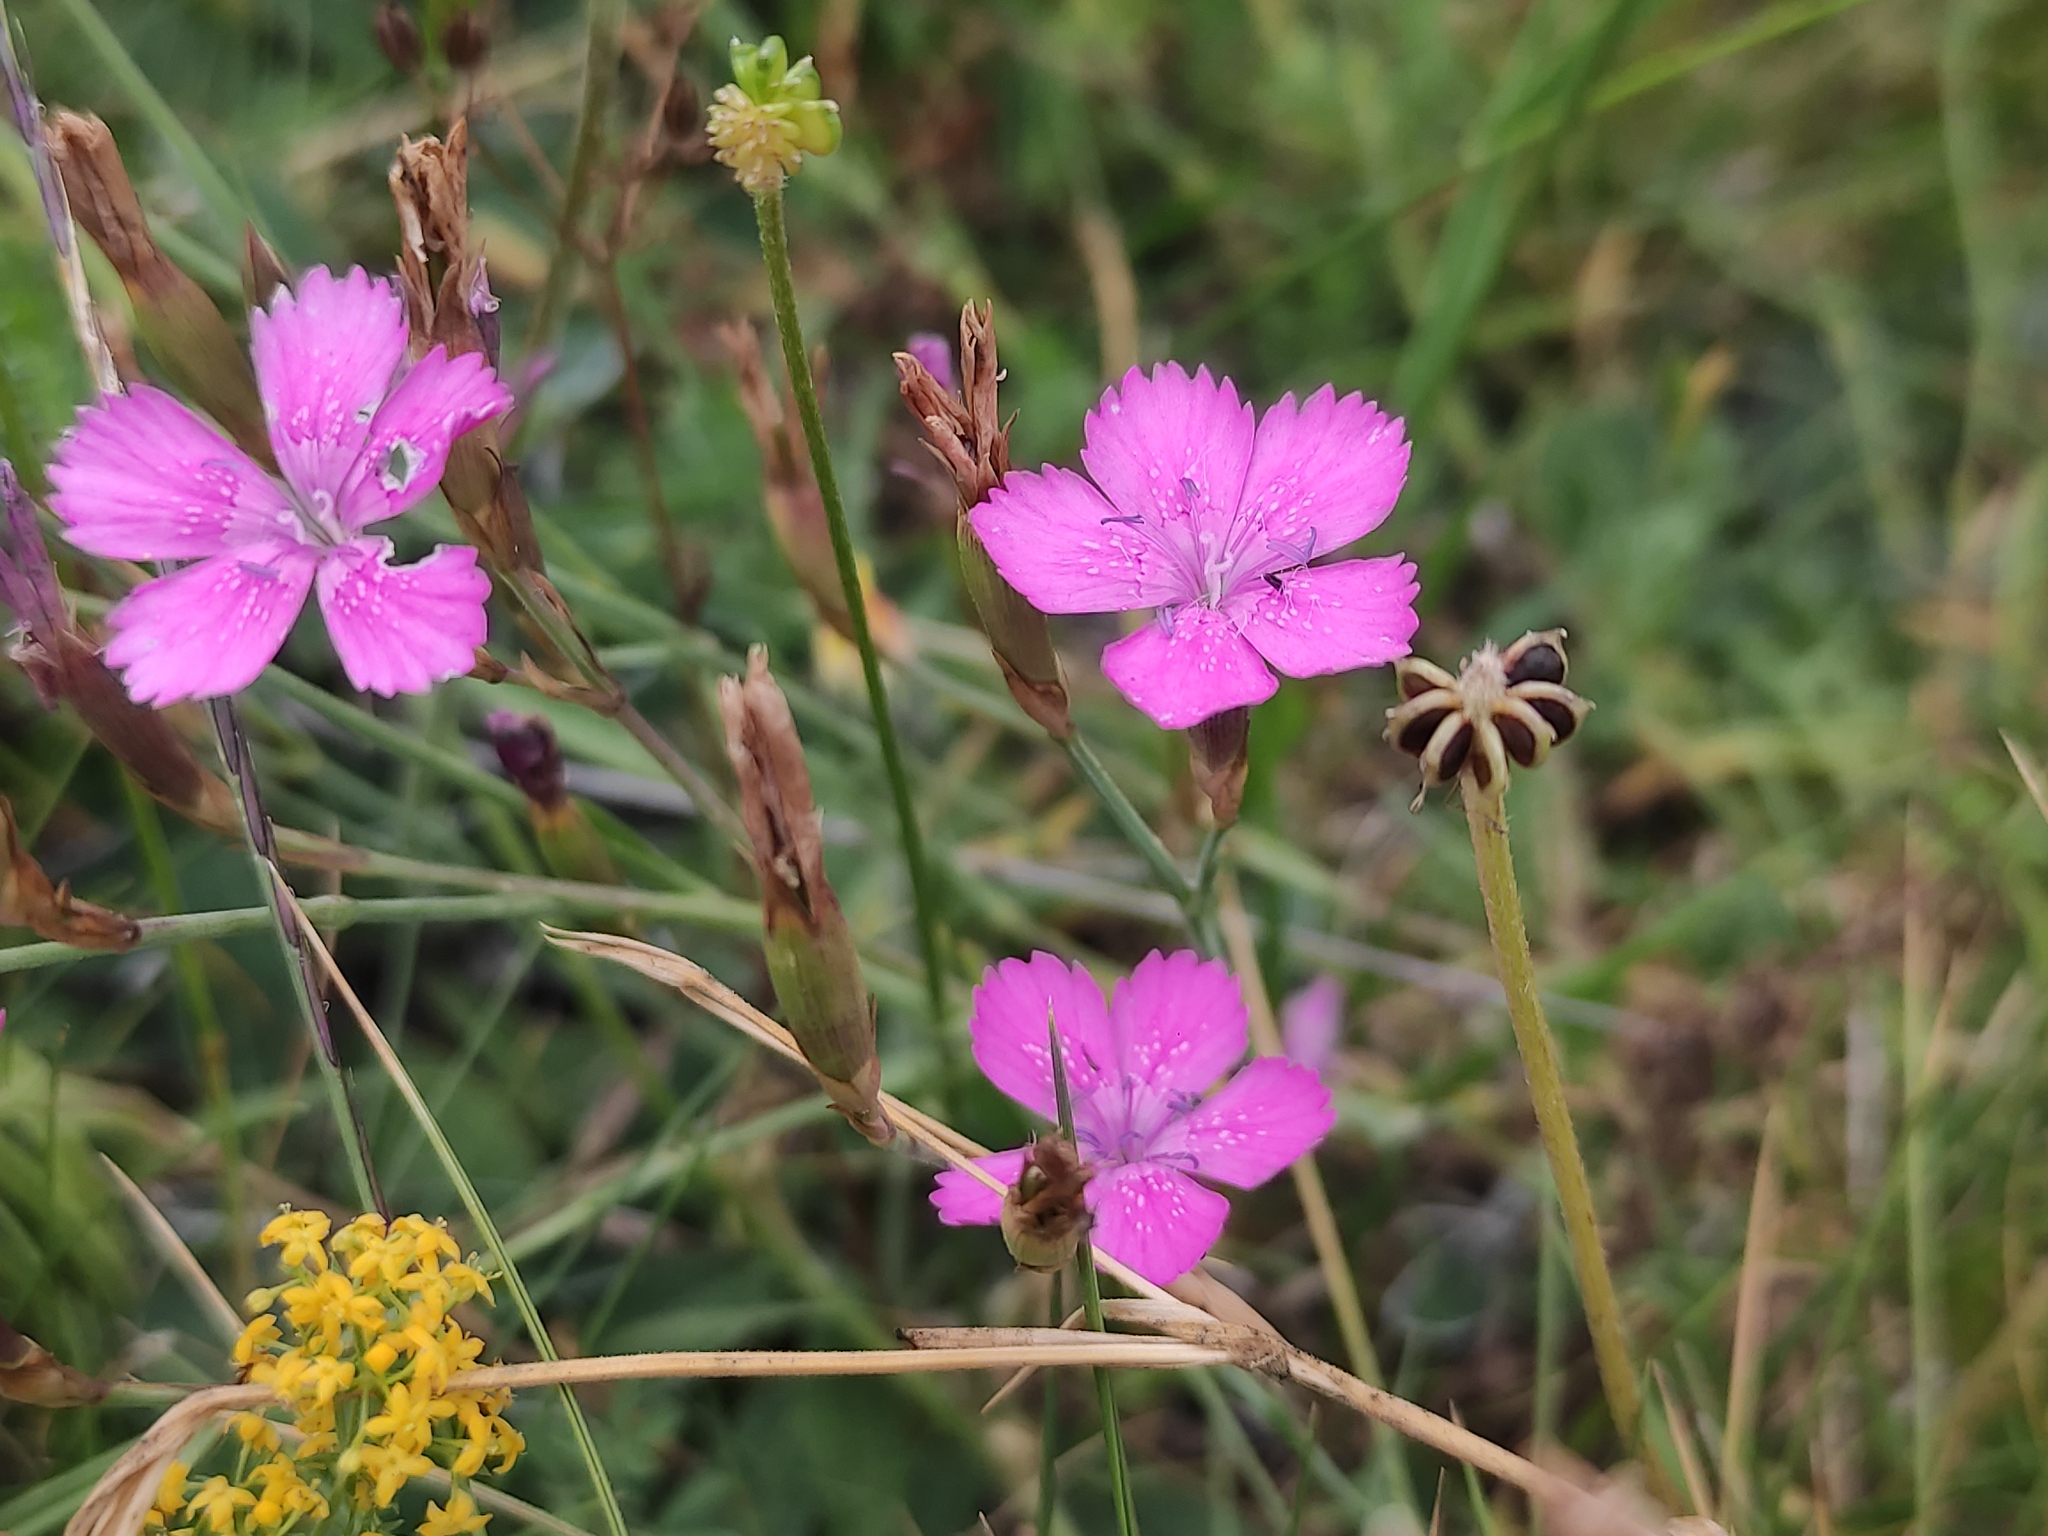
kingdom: Plantae
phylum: Tracheophyta
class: Magnoliopsida
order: Caryophyllales
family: Caryophyllaceae
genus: Dianthus
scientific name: Dianthus deltoides
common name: Maiden pink
